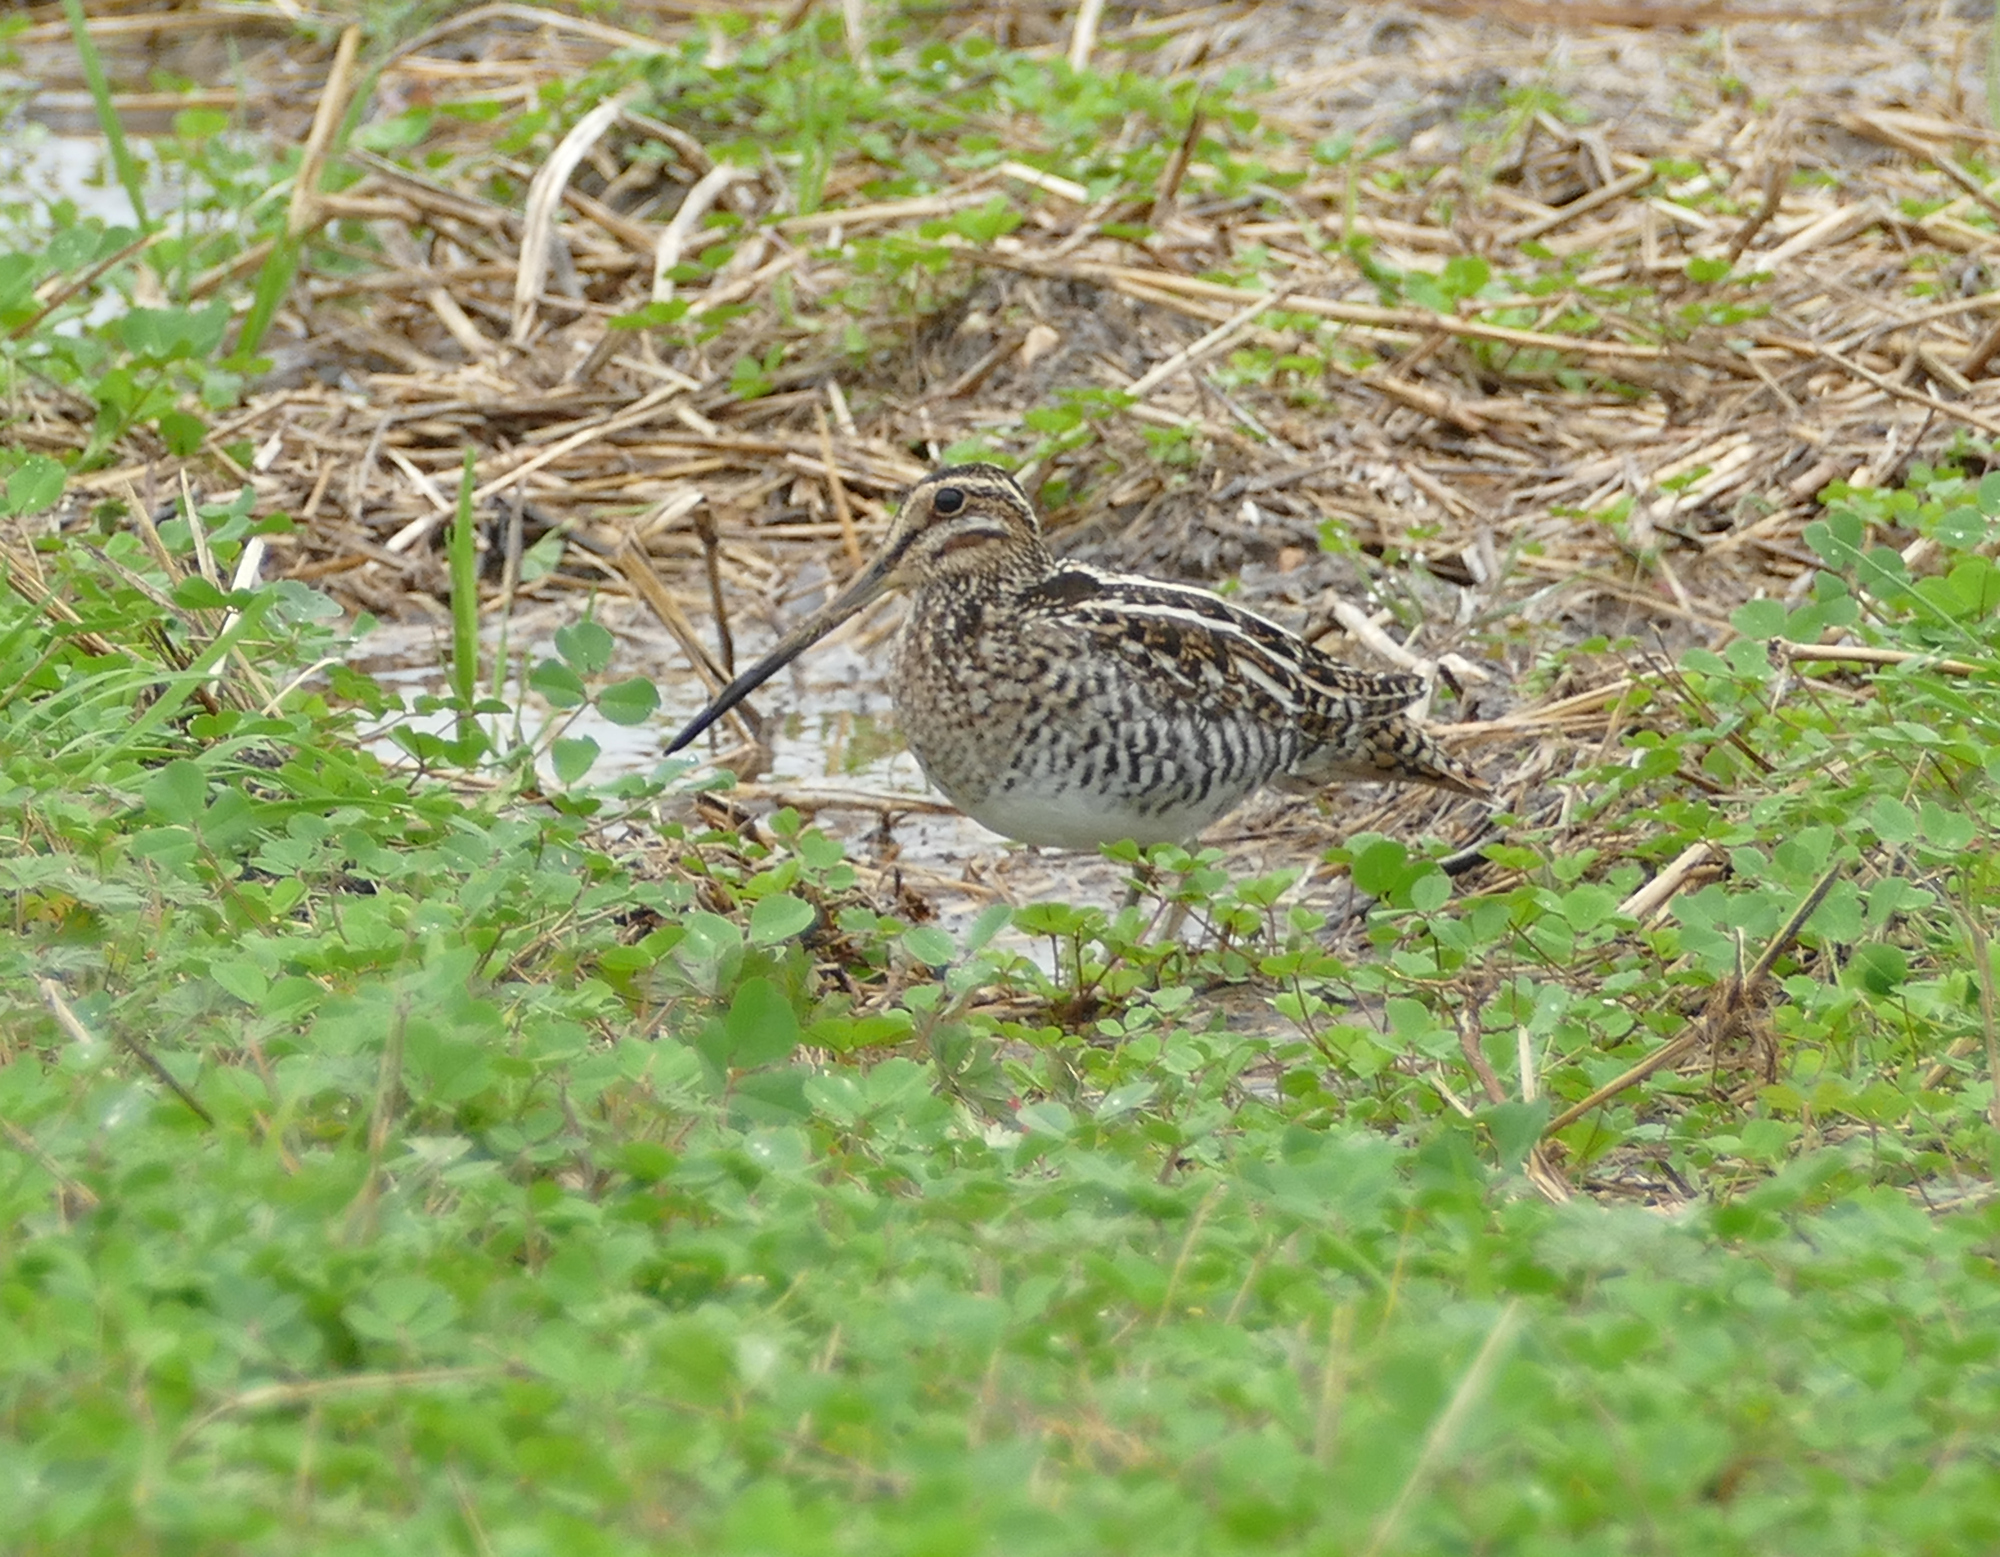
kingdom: Animalia
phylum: Chordata
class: Aves
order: Charadriiformes
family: Scolopacidae
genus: Gallinago
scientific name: Gallinago delicata
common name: Wilson's snipe
